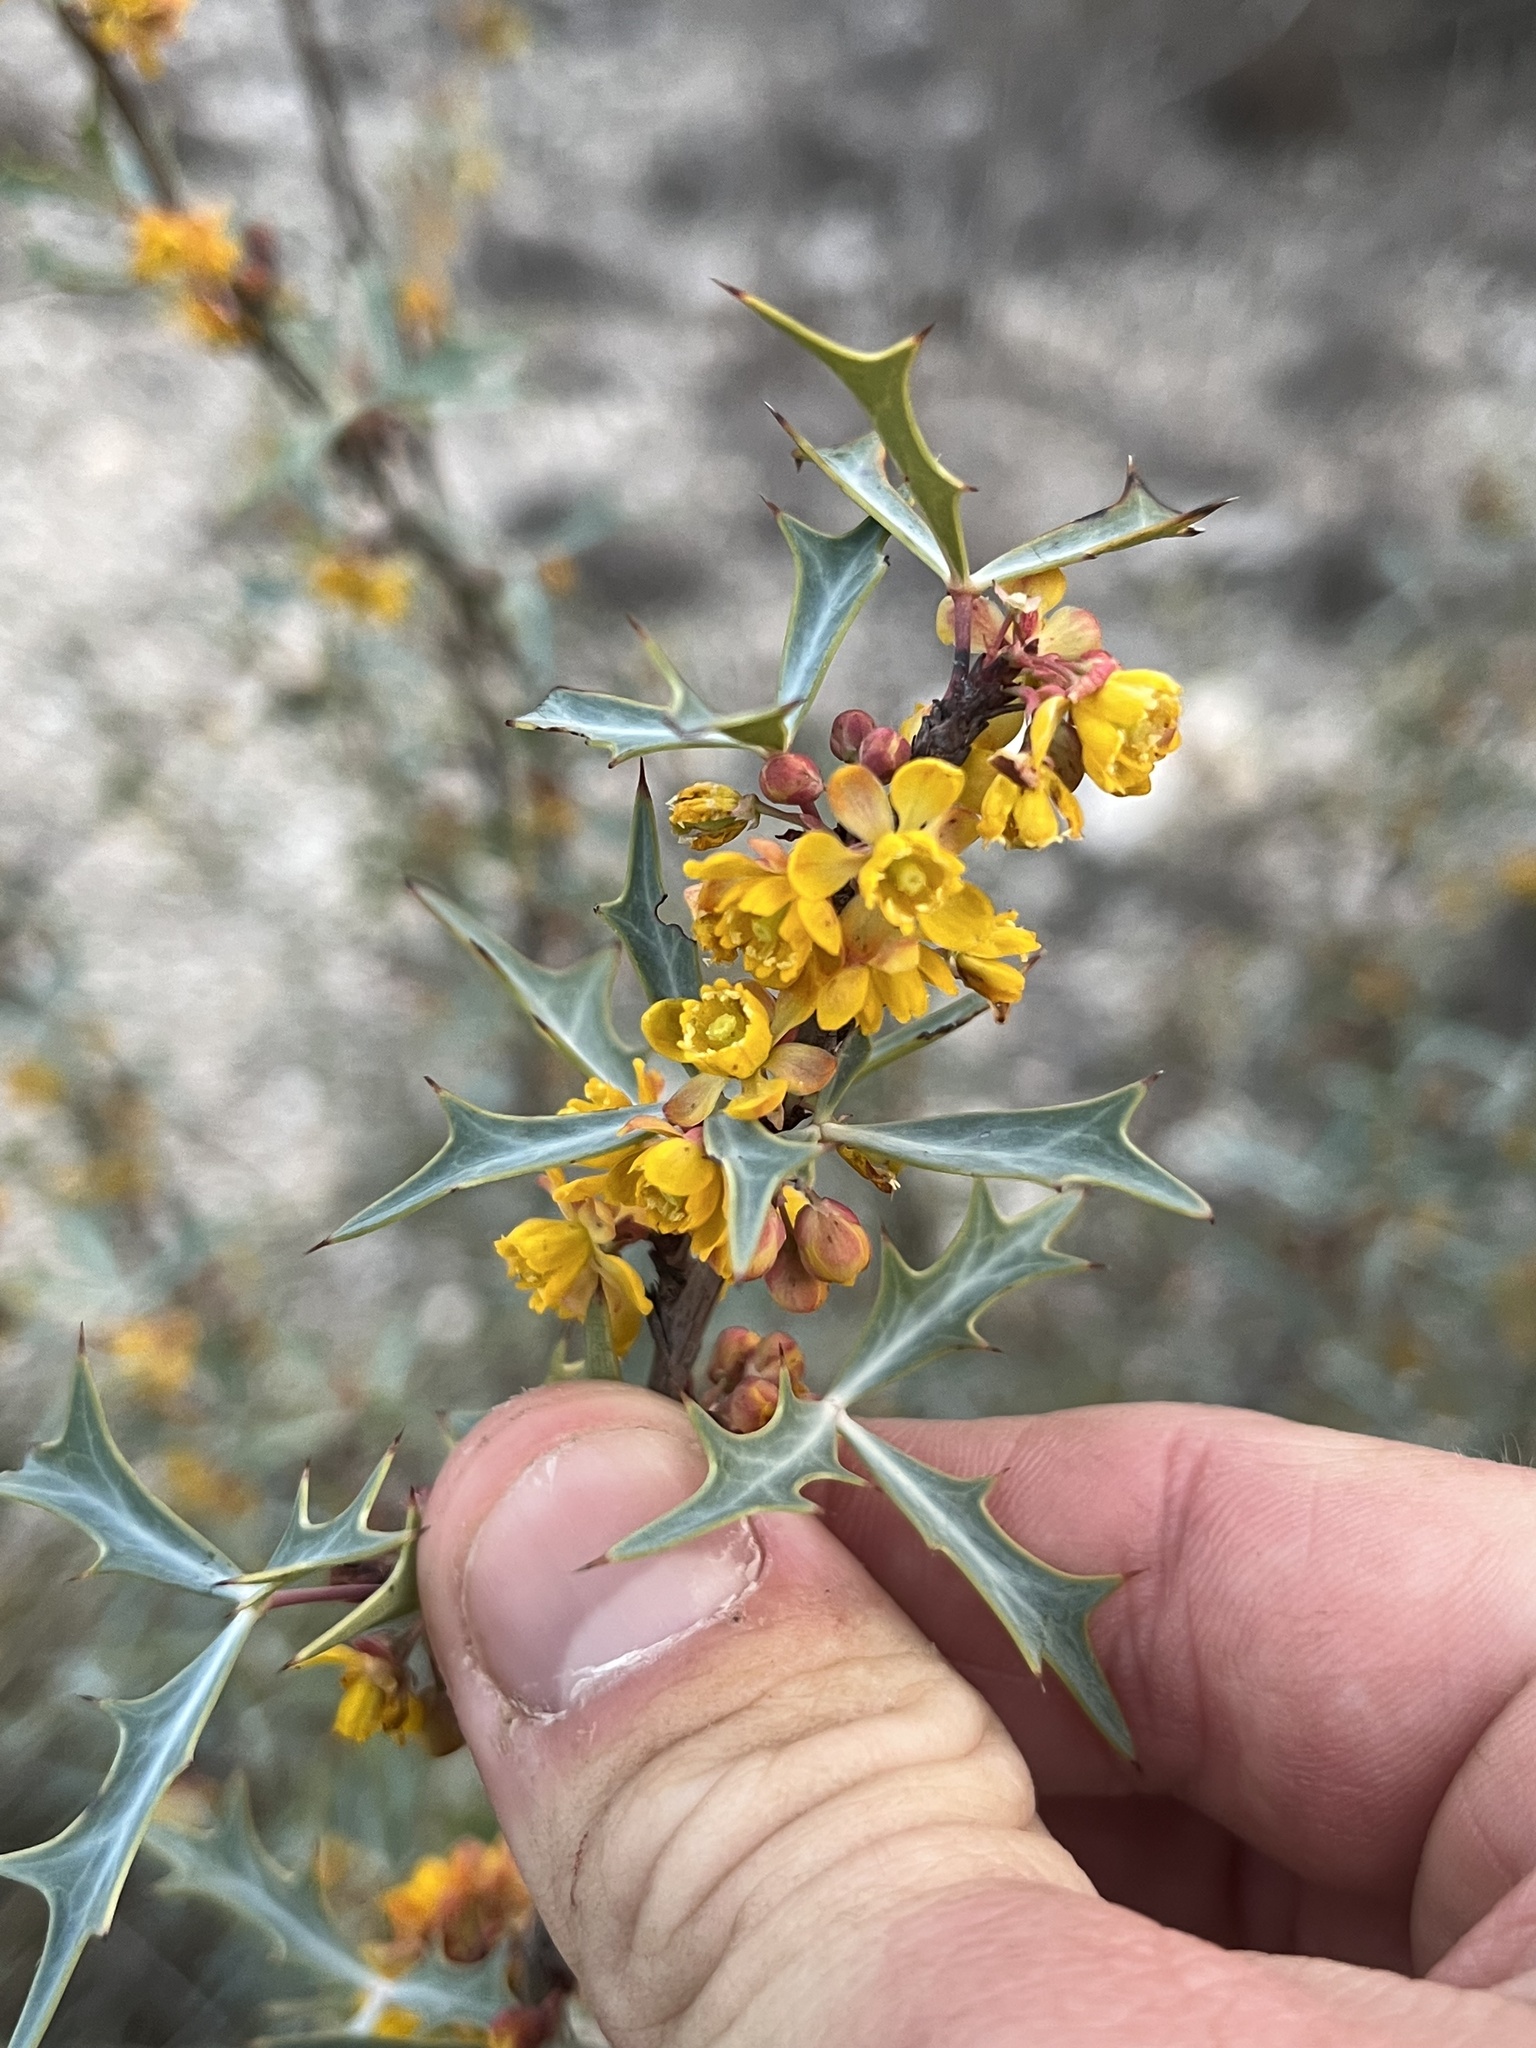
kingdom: Plantae
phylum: Tracheophyta
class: Magnoliopsida
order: Ranunculales
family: Berberidaceae
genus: Alloberberis
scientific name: Alloberberis trifoliolata
